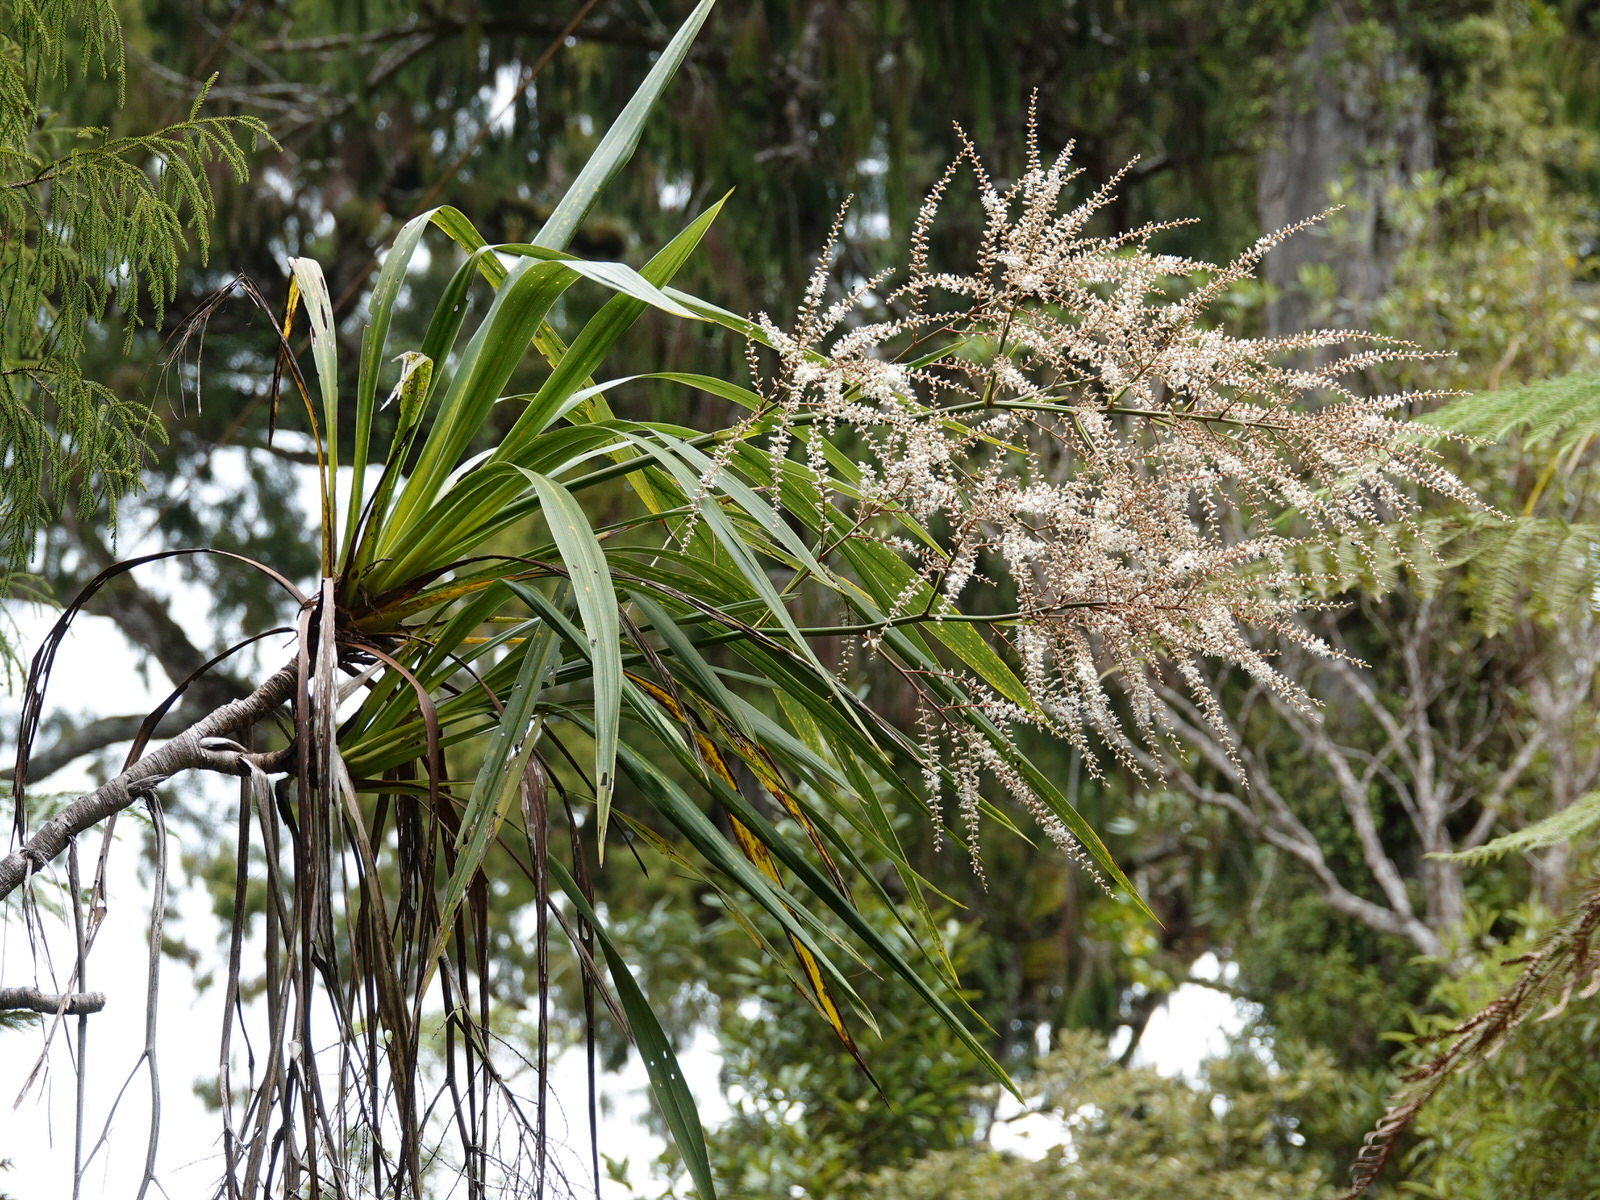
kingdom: Plantae
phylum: Tracheophyta
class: Liliopsida
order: Asparagales
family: Asparagaceae
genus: Cordyline
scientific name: Cordyline banksii
